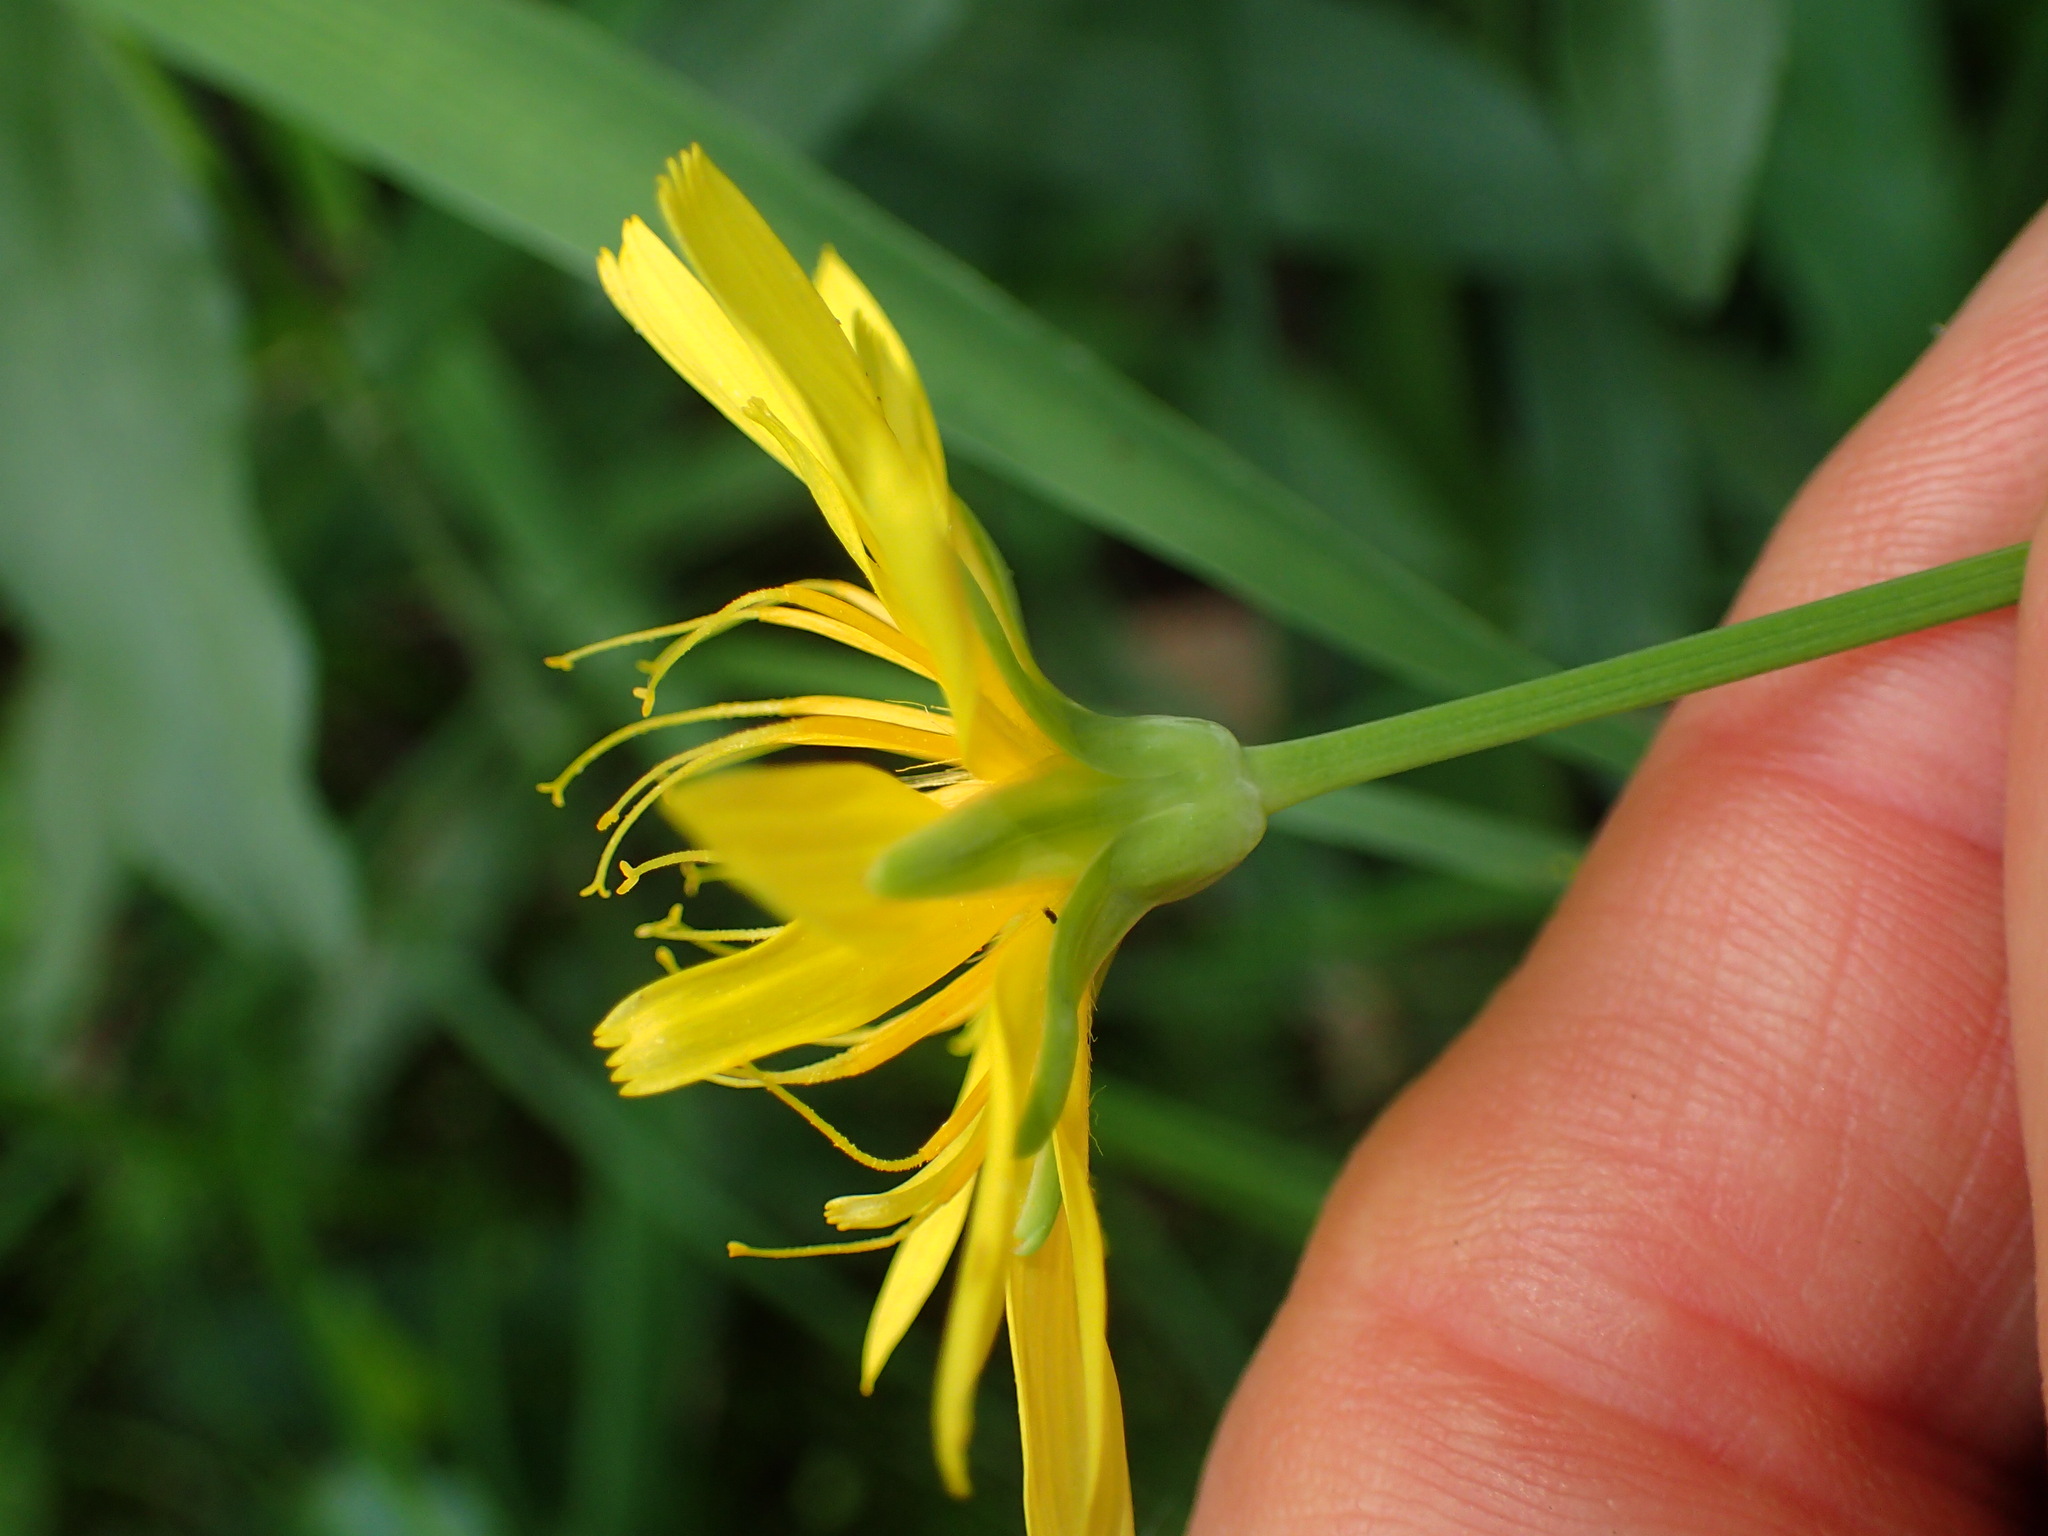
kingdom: Plantae
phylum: Tracheophyta
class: Magnoliopsida
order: Asterales
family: Asteraceae
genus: Krigia
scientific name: Krigia montana
